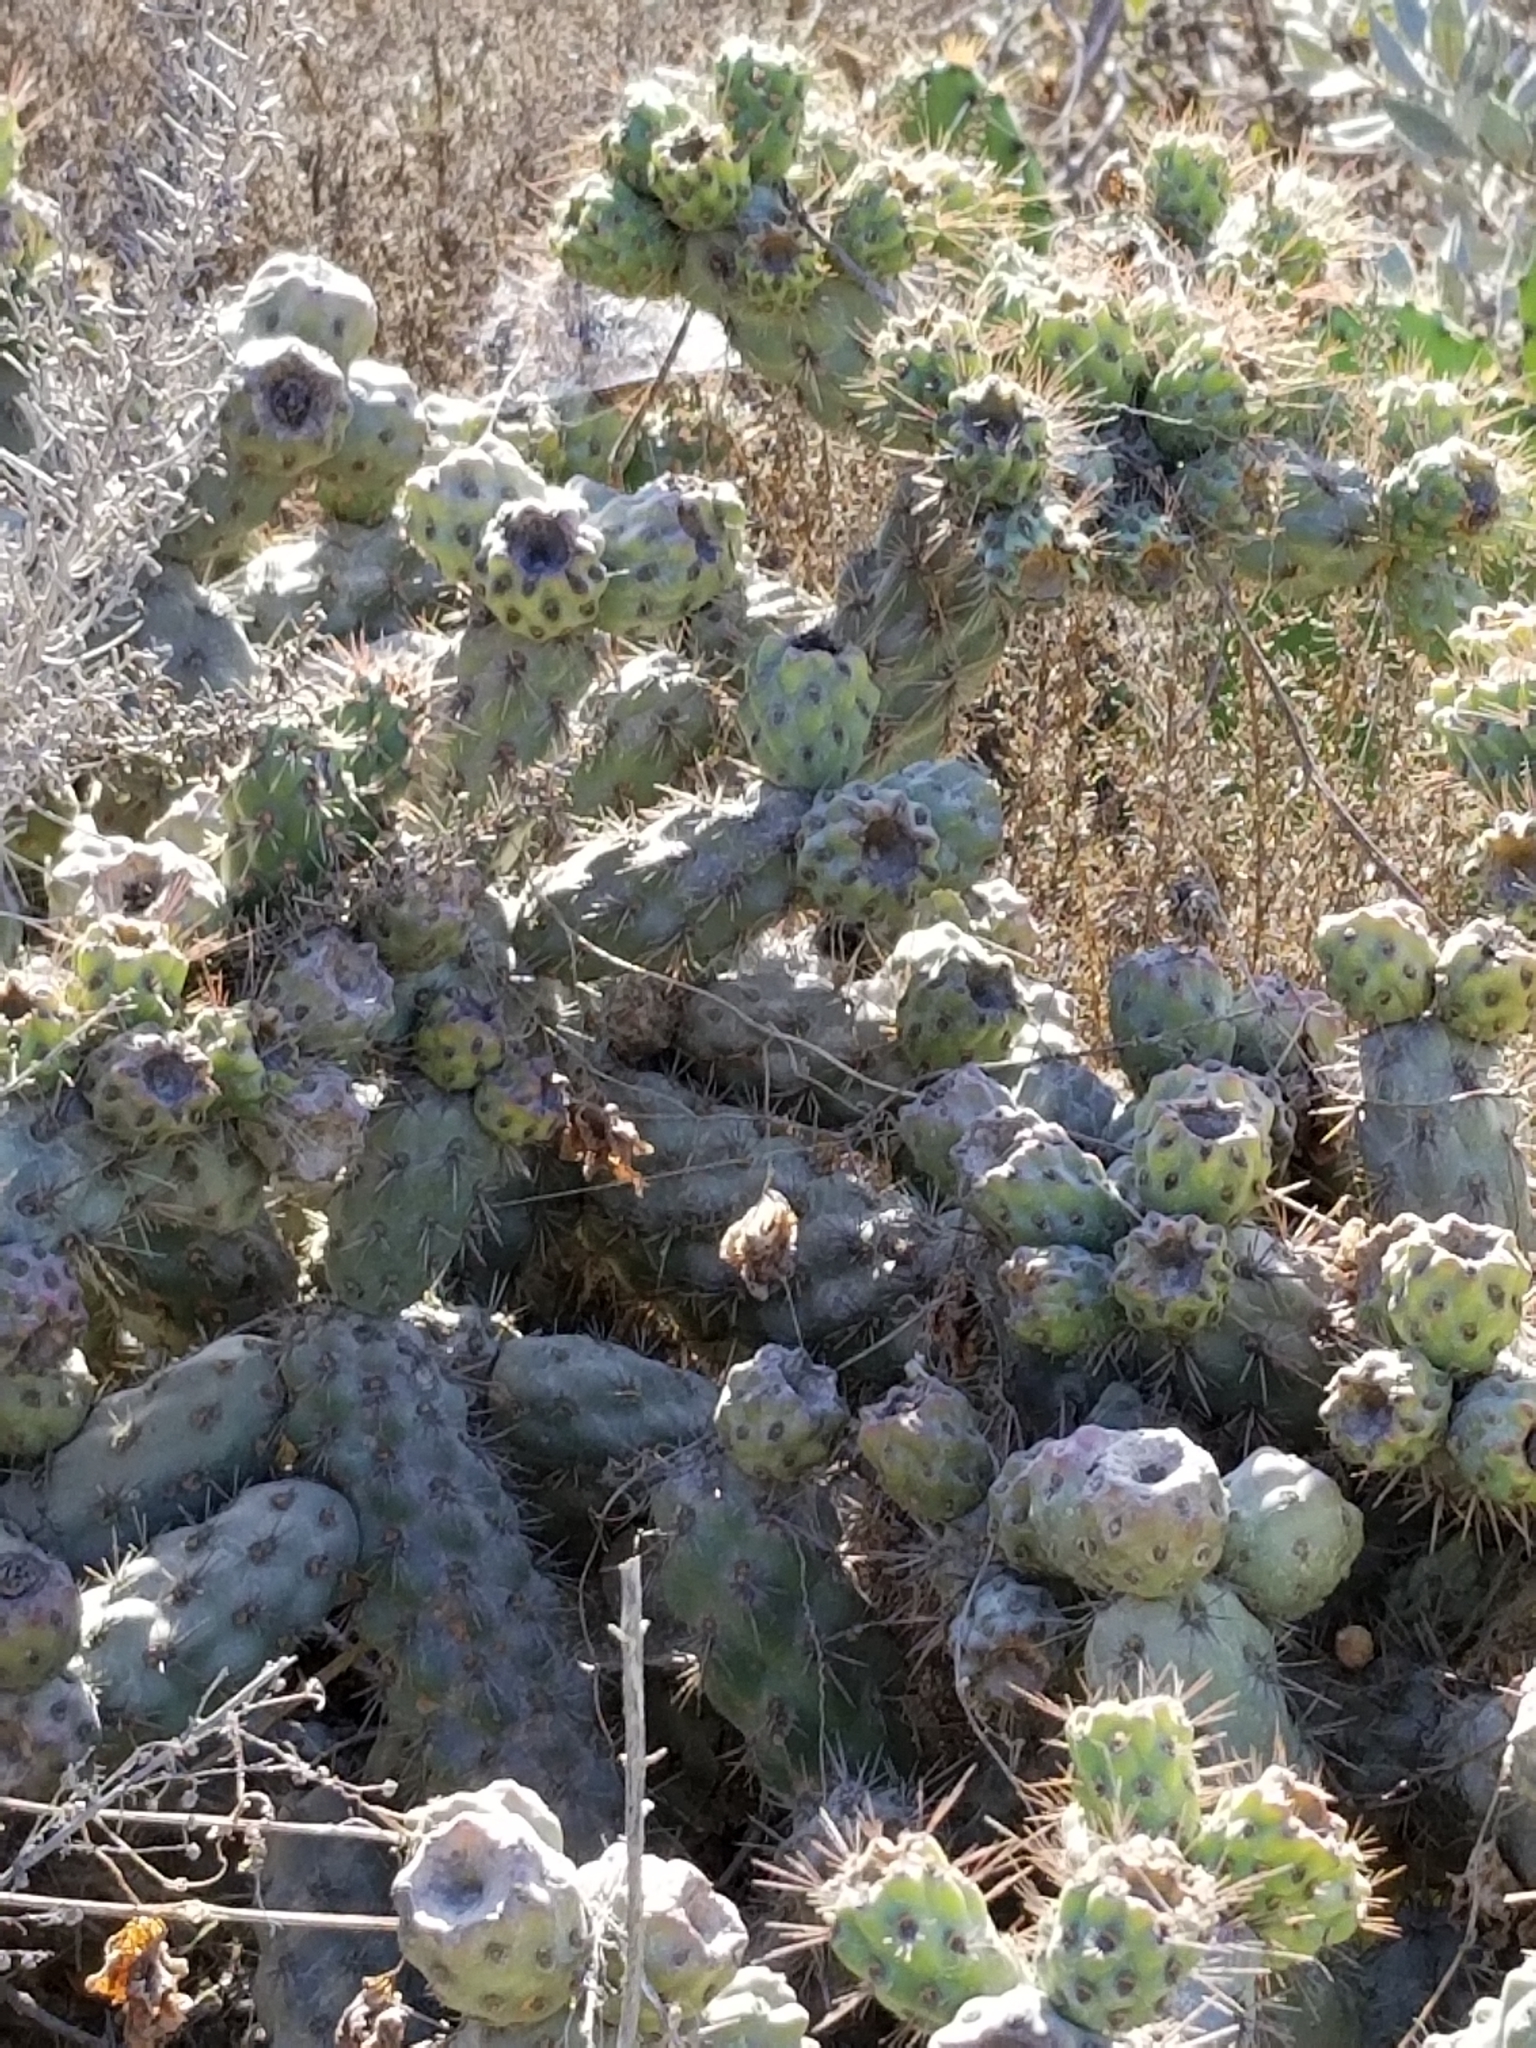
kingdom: Plantae
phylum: Tracheophyta
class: Magnoliopsida
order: Caryophyllales
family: Cactaceae
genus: Cylindropuntia
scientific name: Cylindropuntia prolifera
